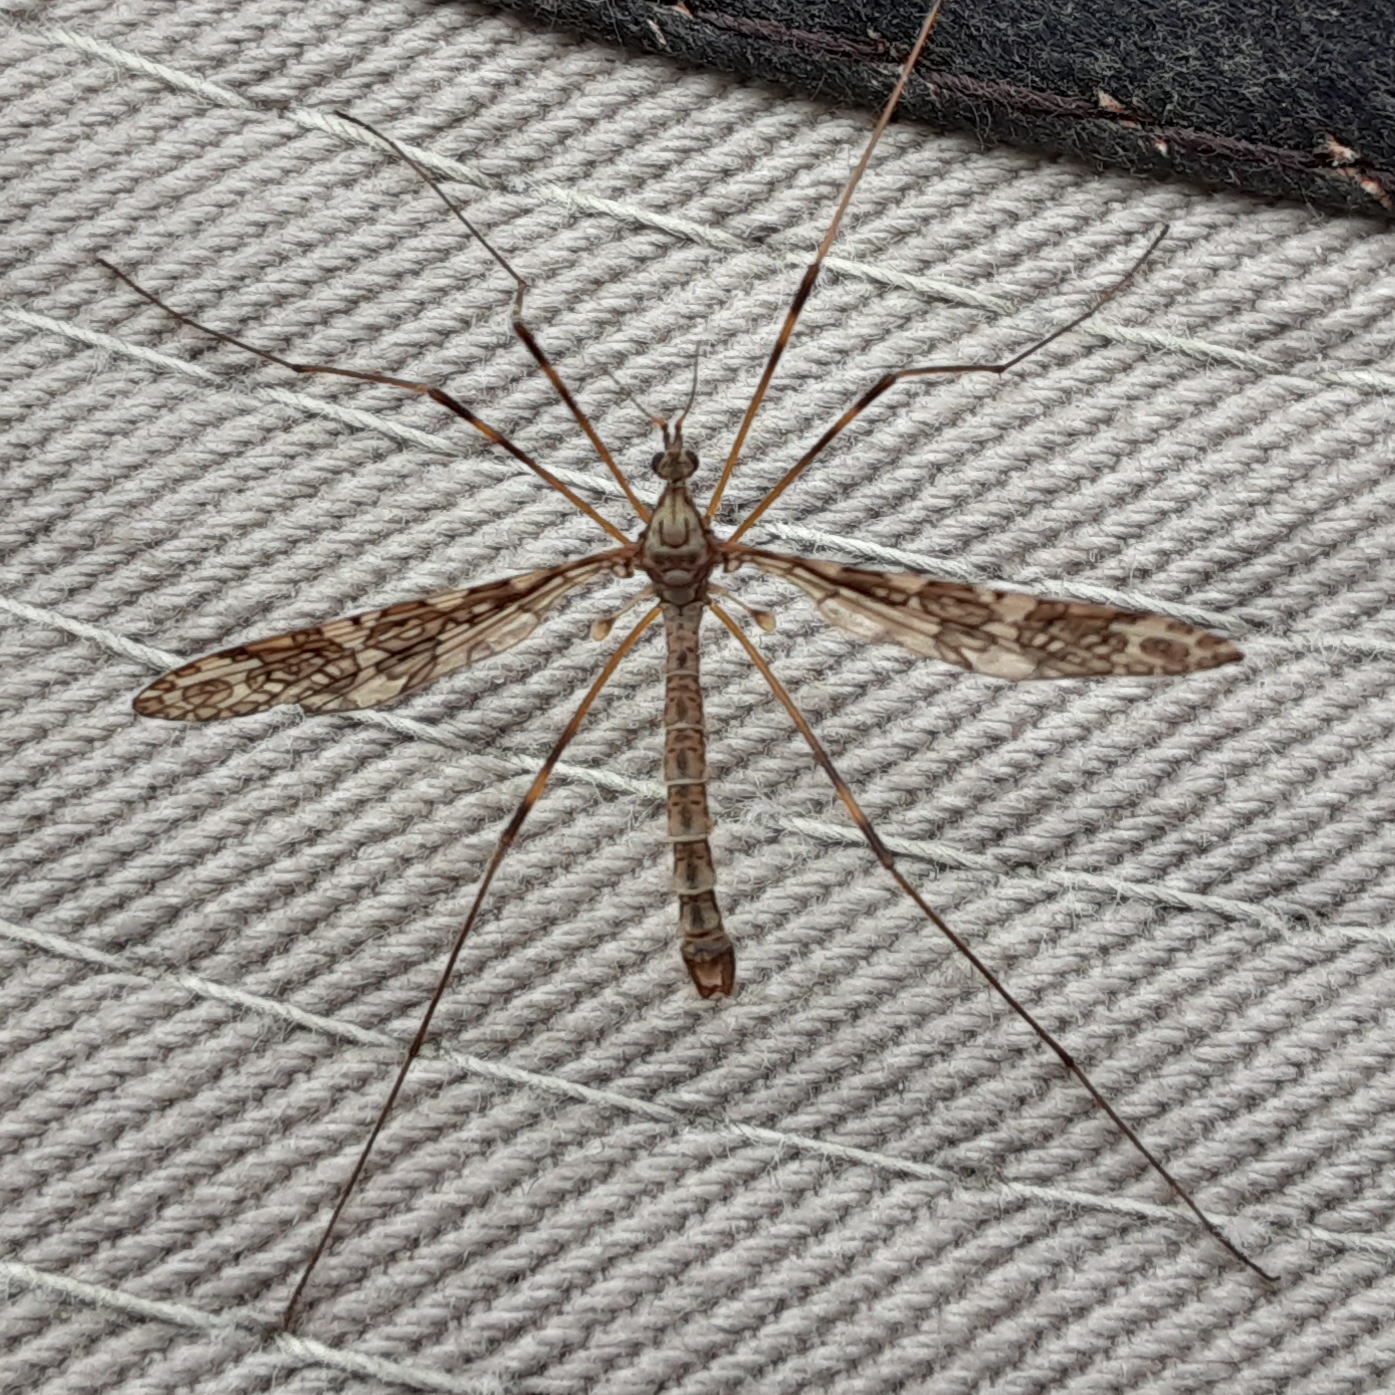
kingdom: Animalia
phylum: Arthropoda
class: Insecta
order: Diptera
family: Limoniidae
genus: Epiphragma
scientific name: Epiphragma fasciapenne
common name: Band-winged crane fly
